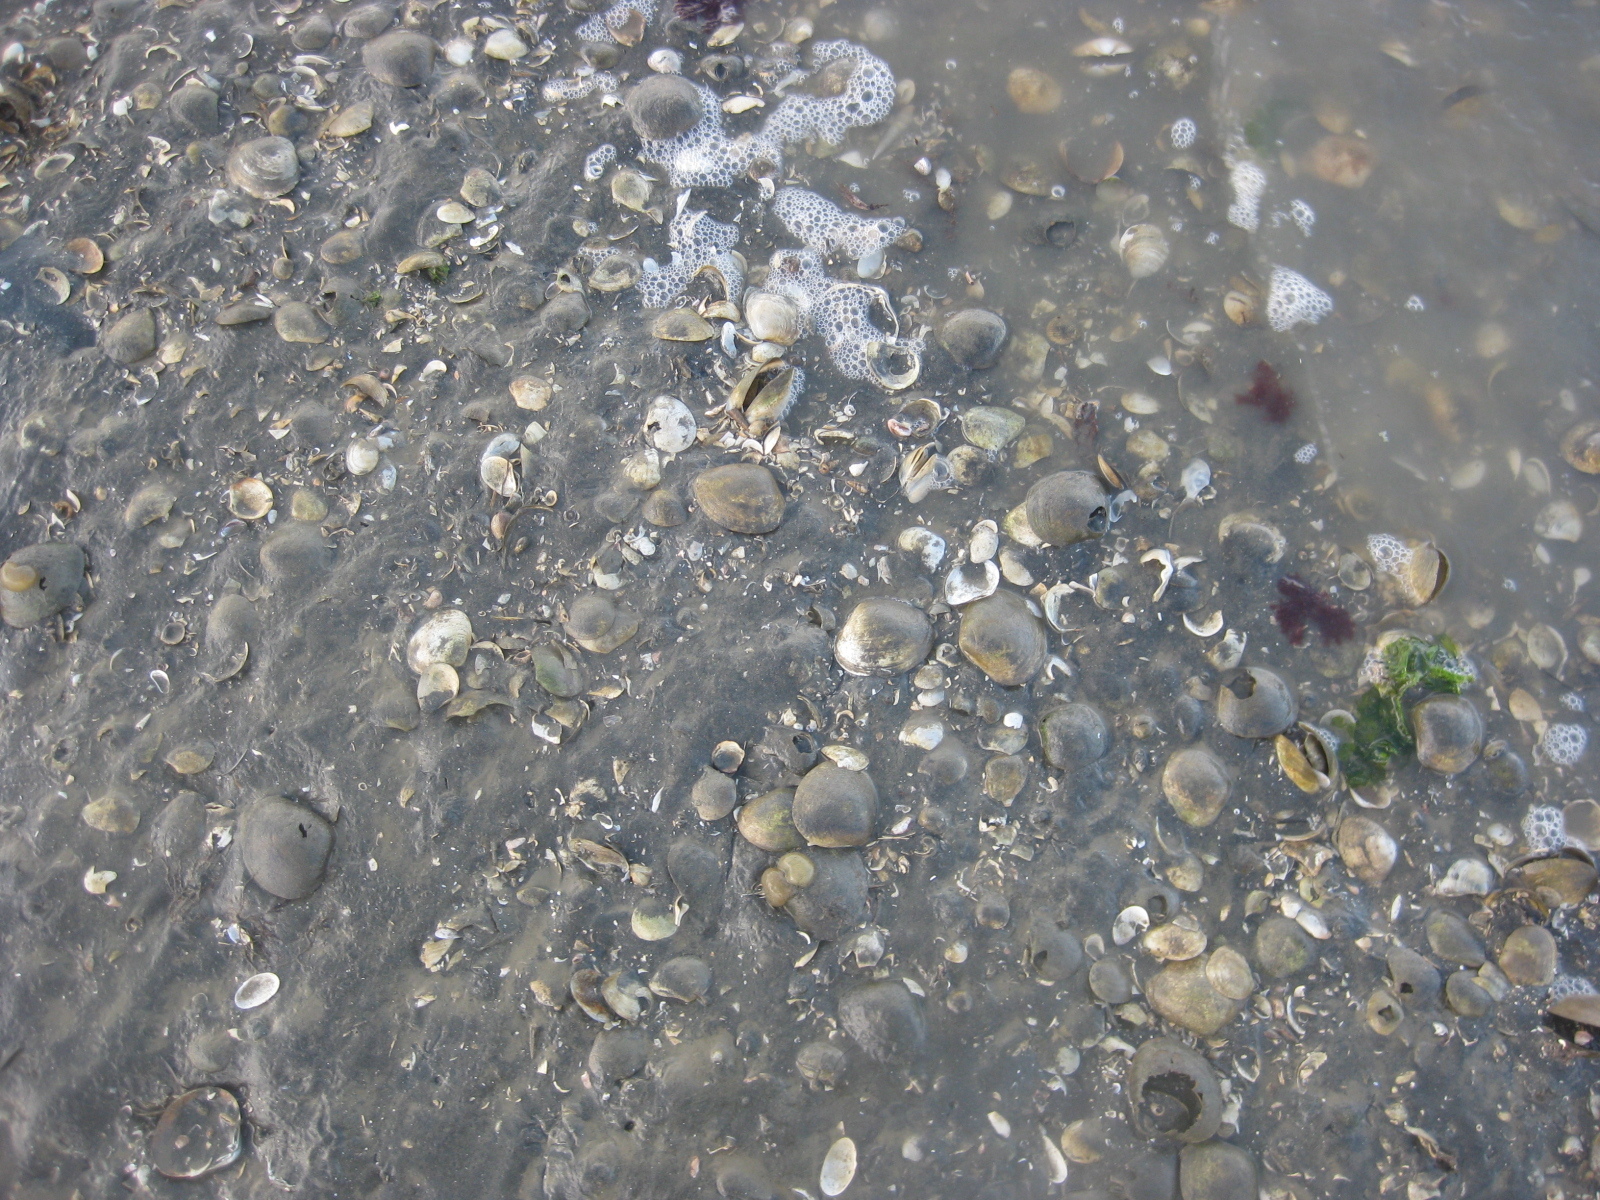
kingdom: Animalia
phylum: Mollusca
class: Bivalvia
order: Venerida
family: Mactridae
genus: Cyclomactra
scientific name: Cyclomactra ovata
